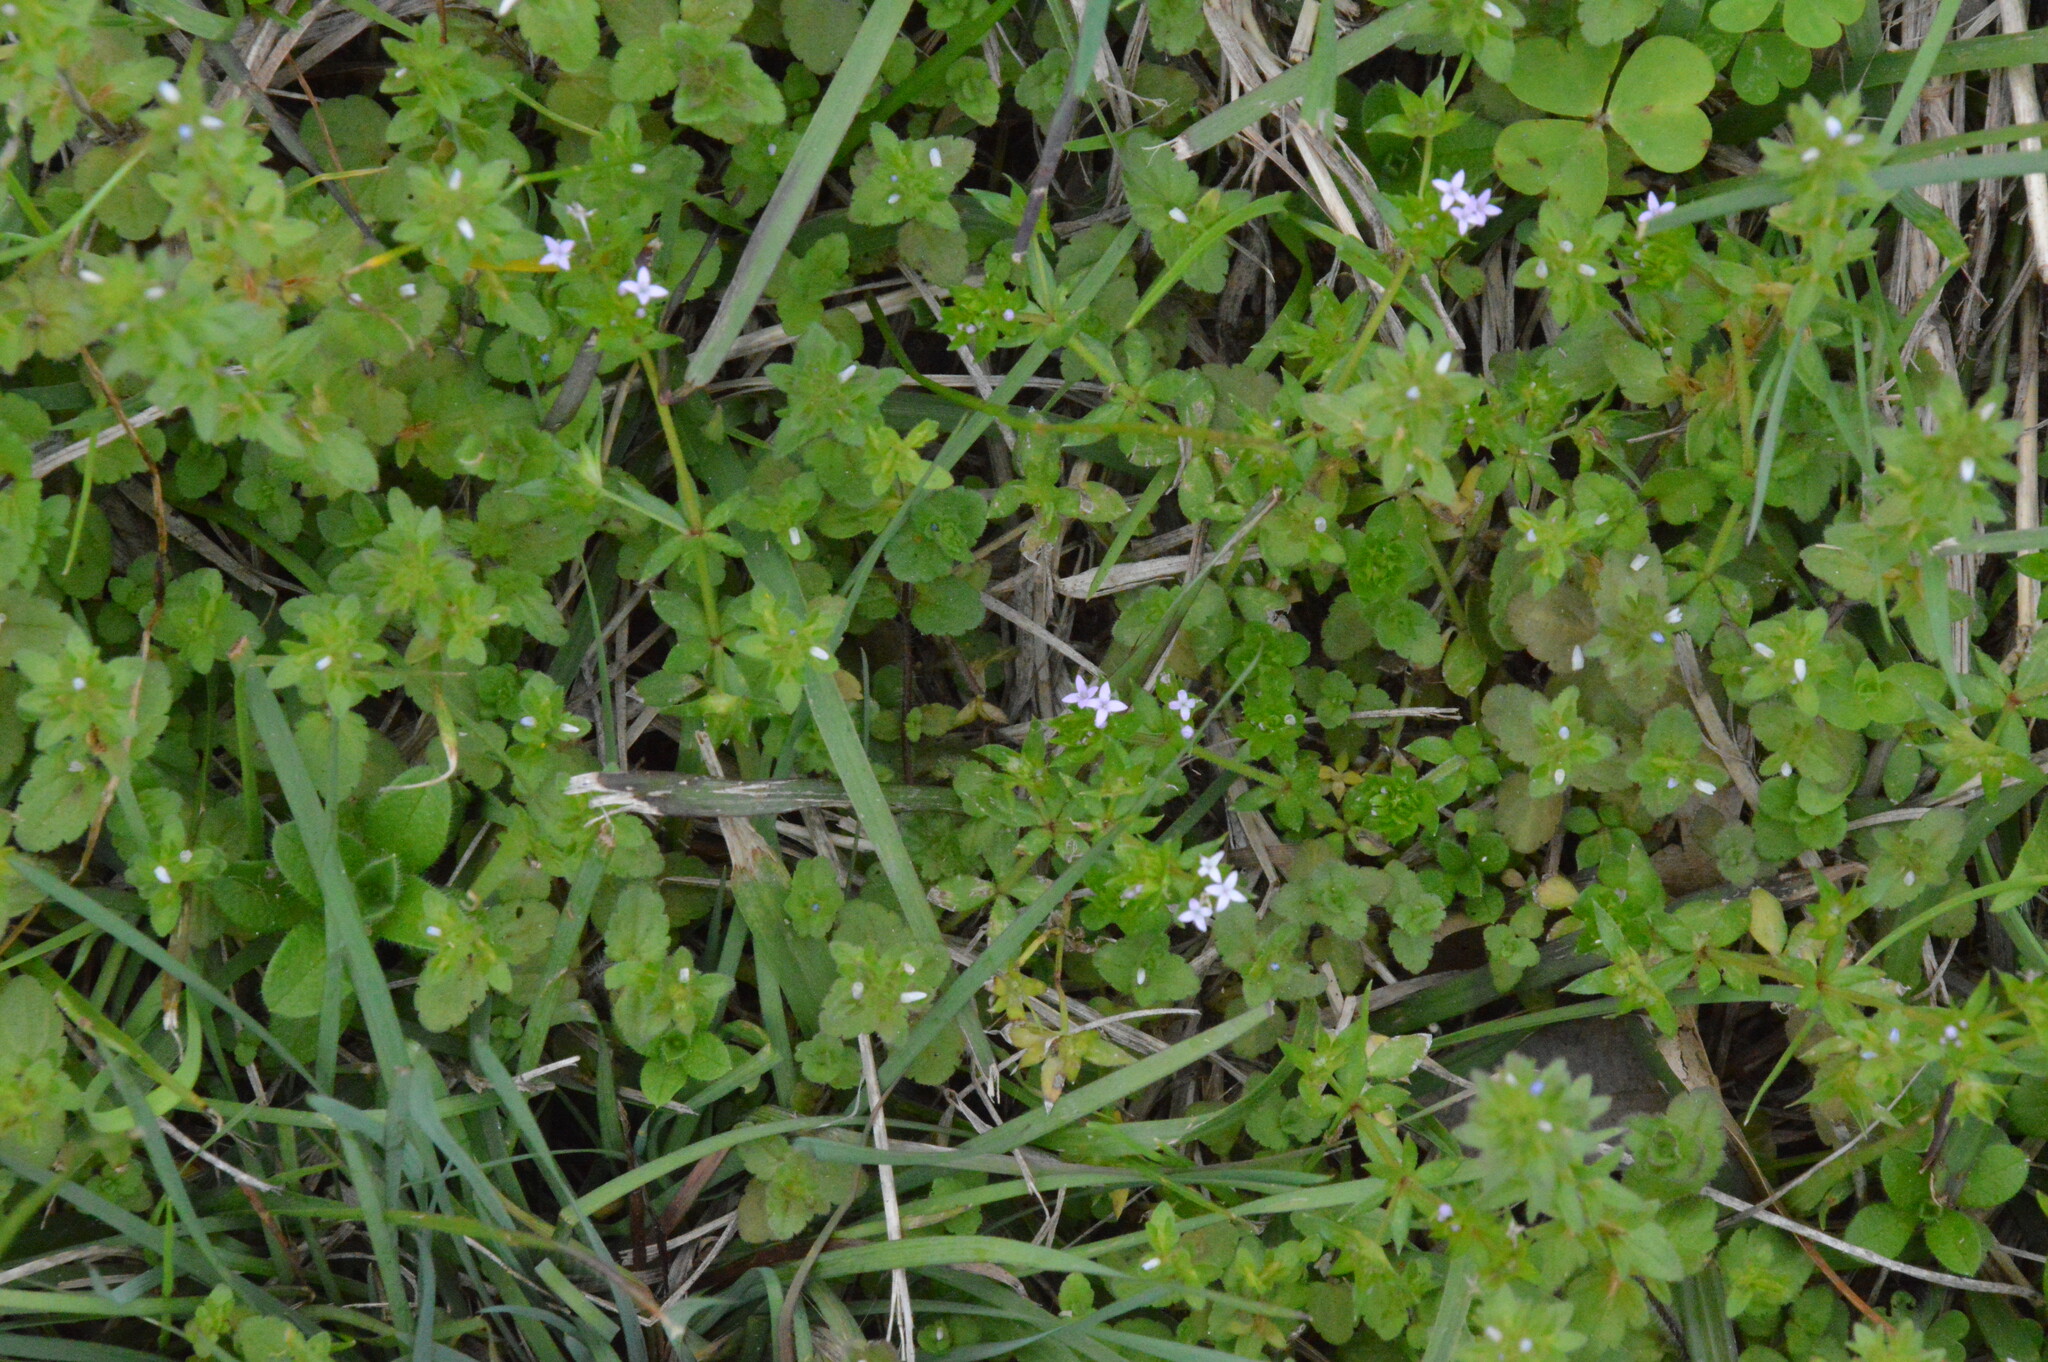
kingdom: Plantae
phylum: Tracheophyta
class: Magnoliopsida
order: Gentianales
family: Rubiaceae
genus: Sherardia
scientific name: Sherardia arvensis
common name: Field madder
